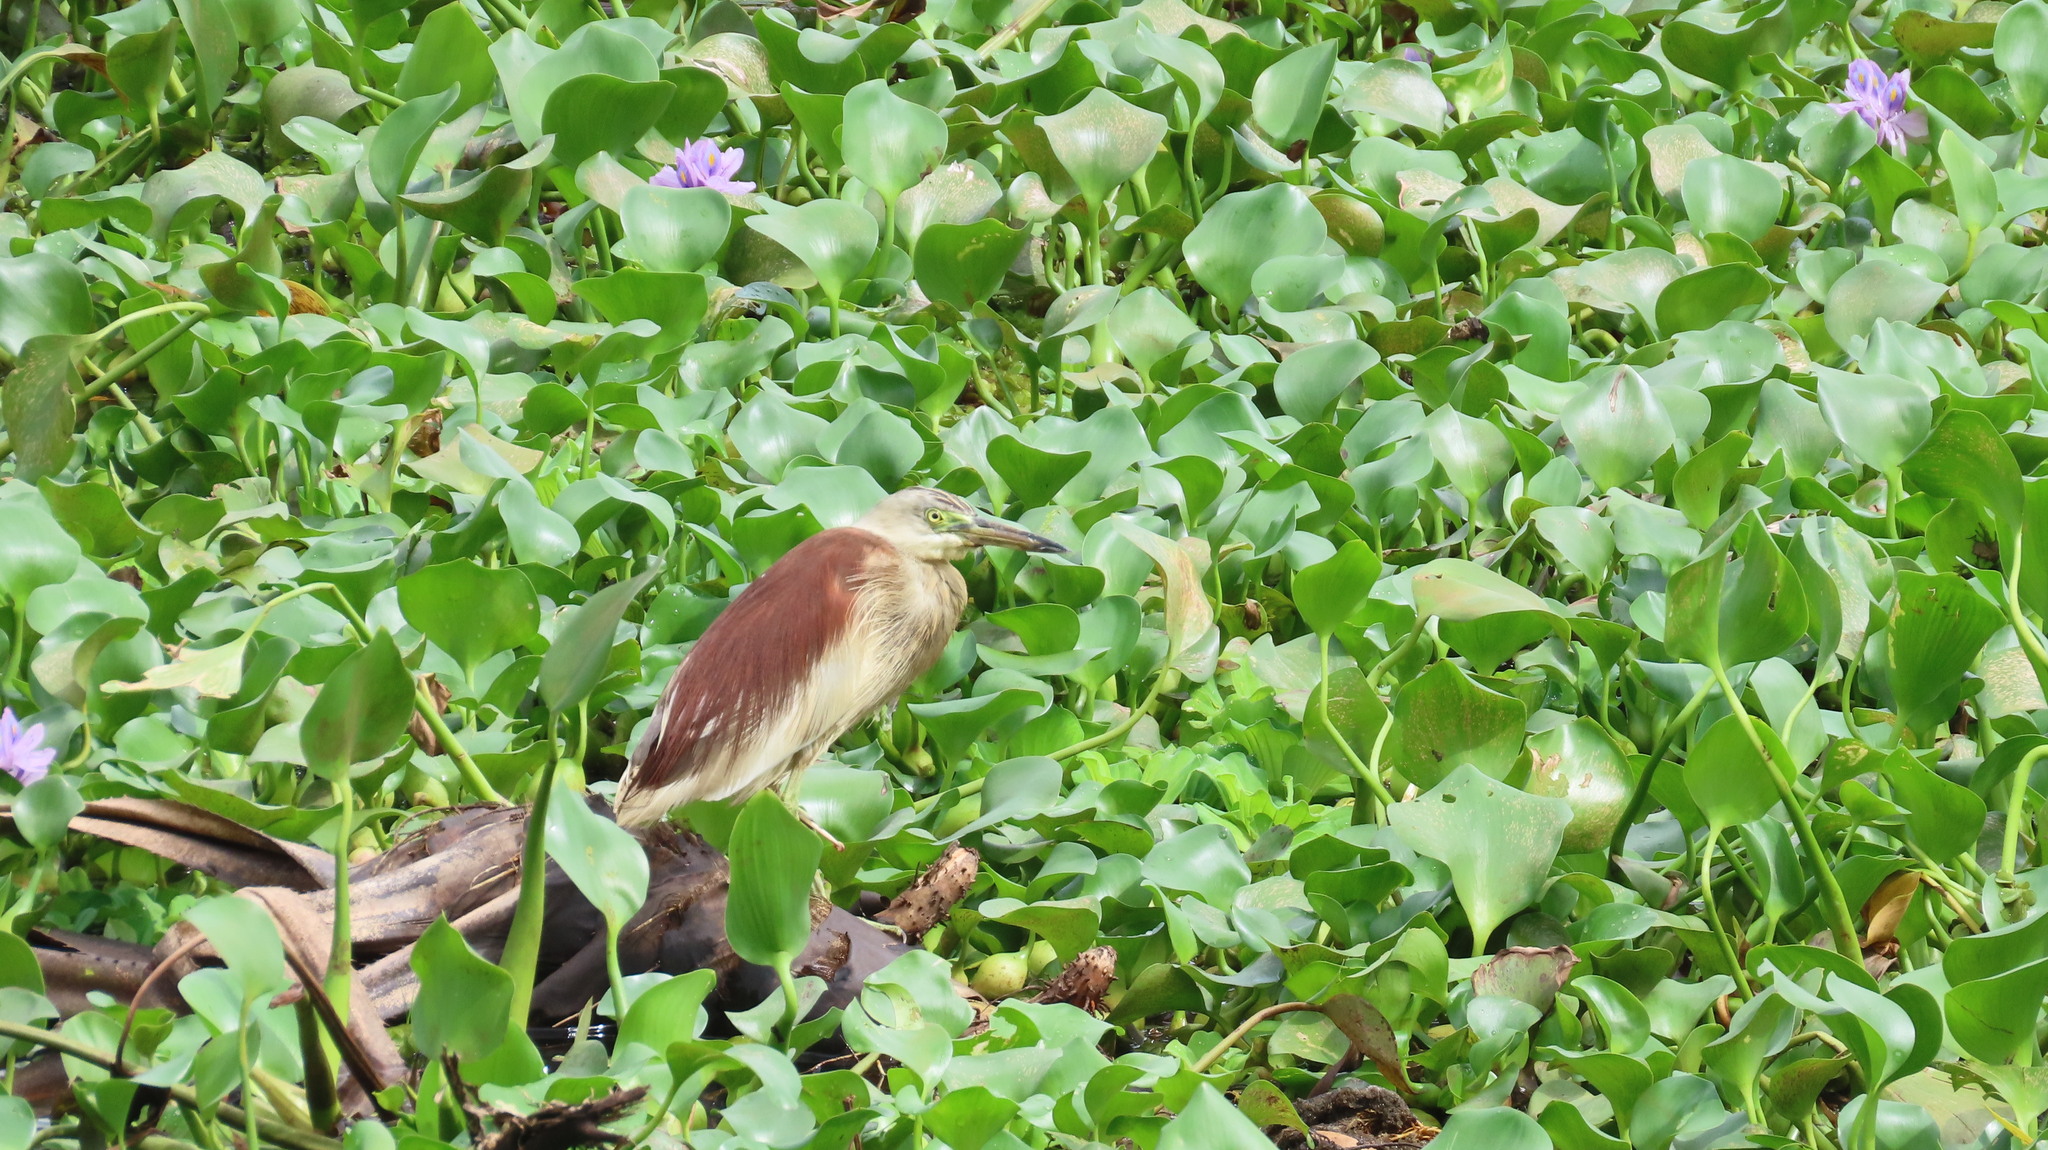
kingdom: Animalia
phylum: Chordata
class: Aves
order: Pelecaniformes
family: Ardeidae
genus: Ardeola
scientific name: Ardeola grayii
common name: Indian pond heron
